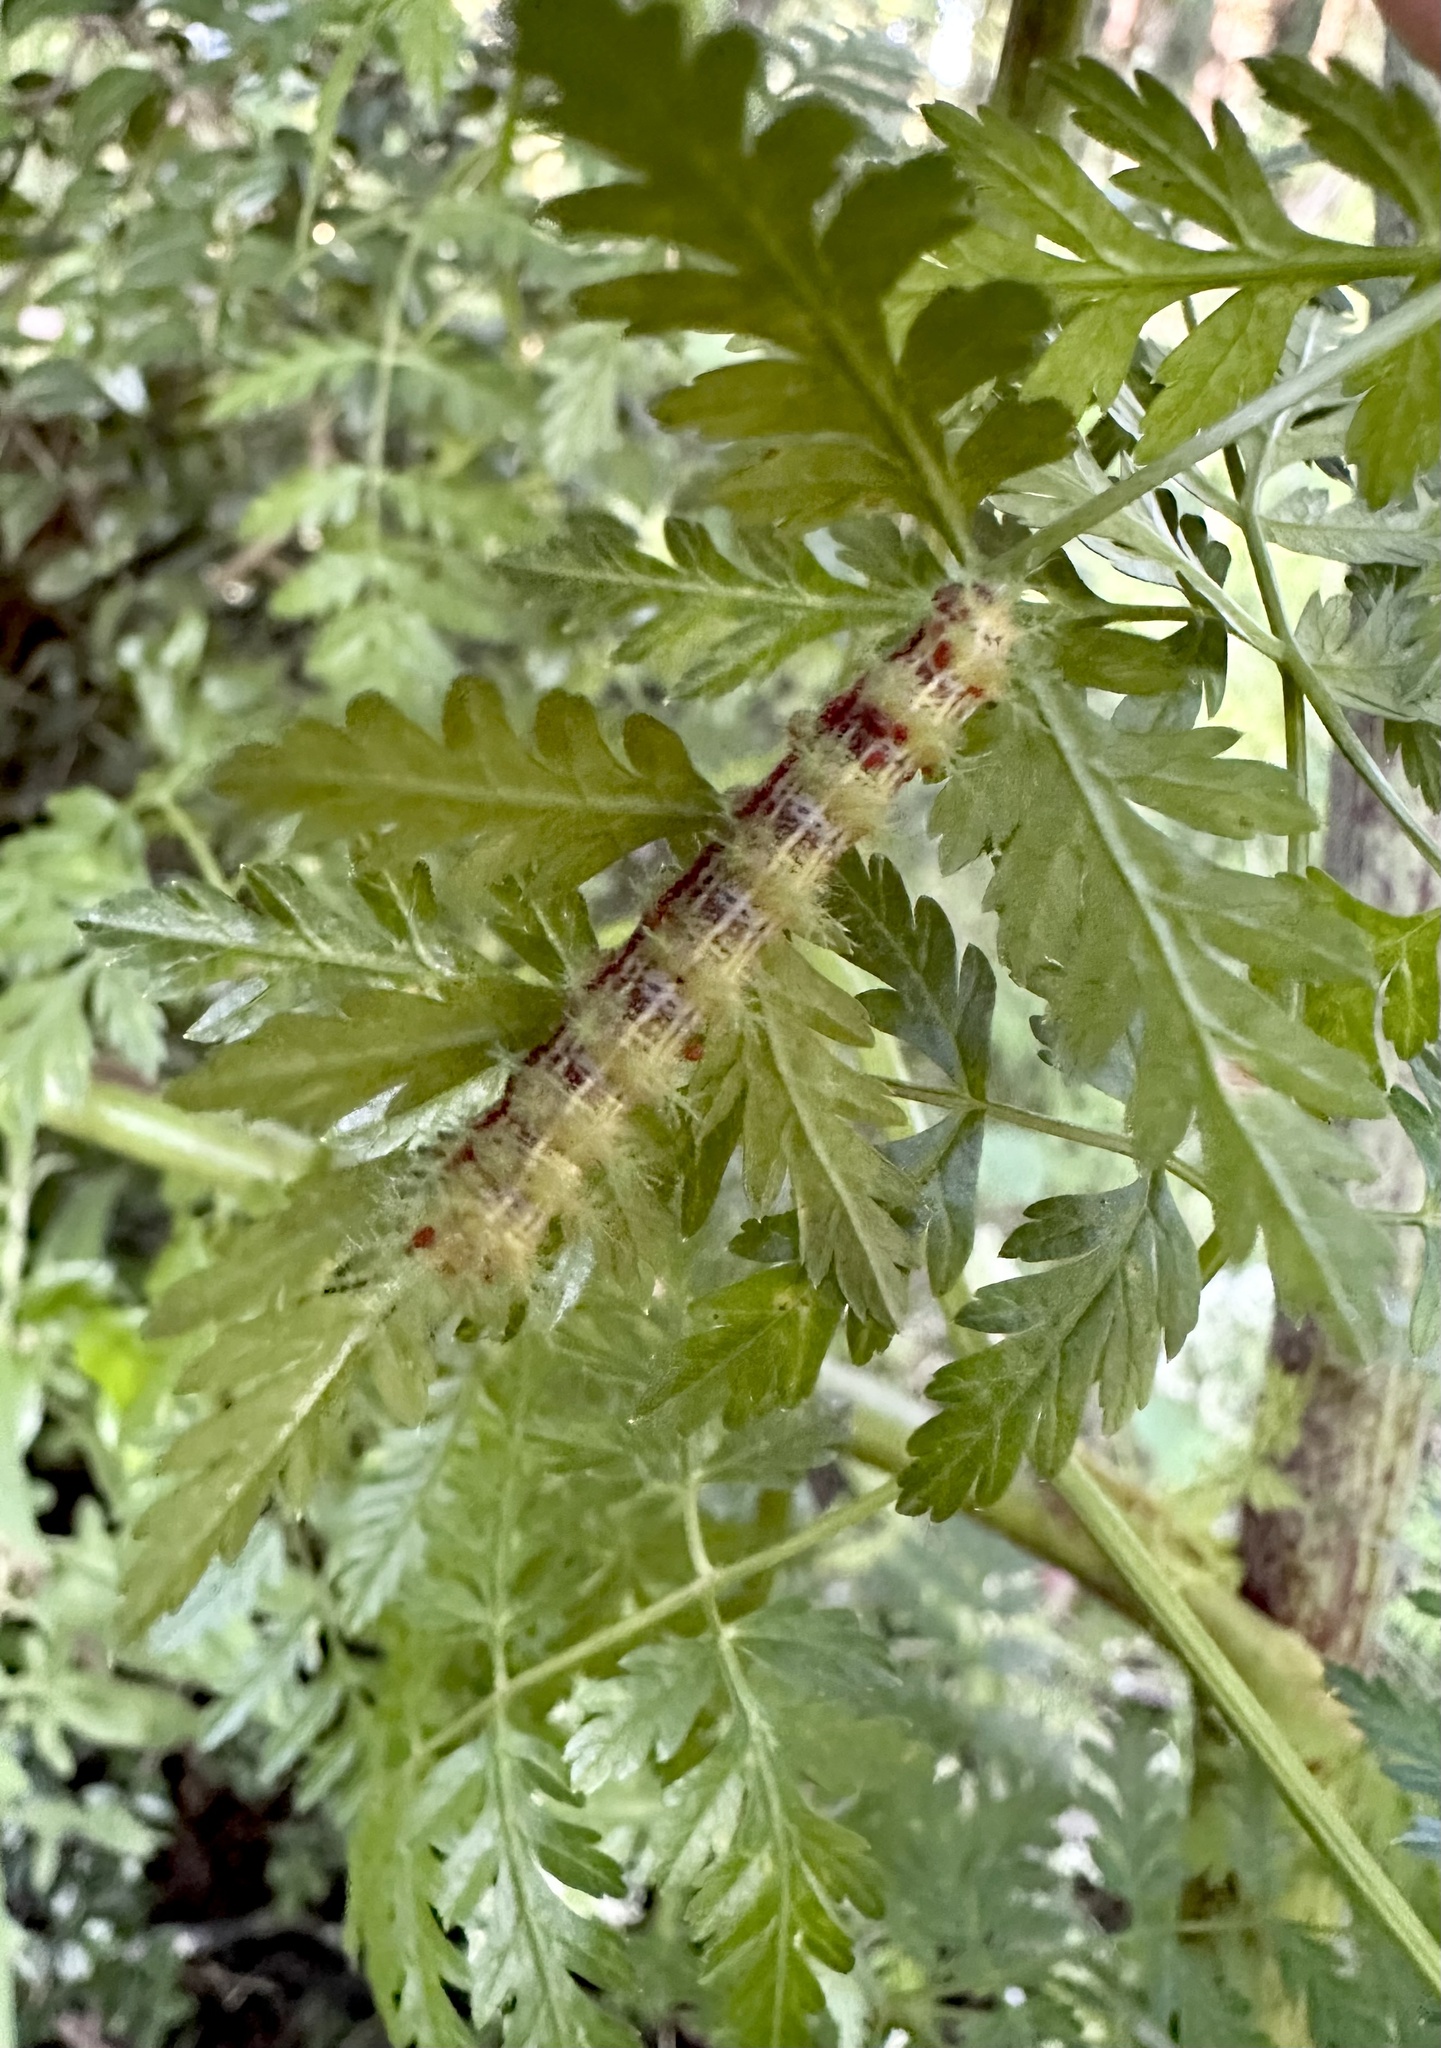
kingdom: Animalia
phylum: Arthropoda
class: Insecta
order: Lepidoptera
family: Saturniidae
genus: Ormiscodes
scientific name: Ormiscodes amphinome
